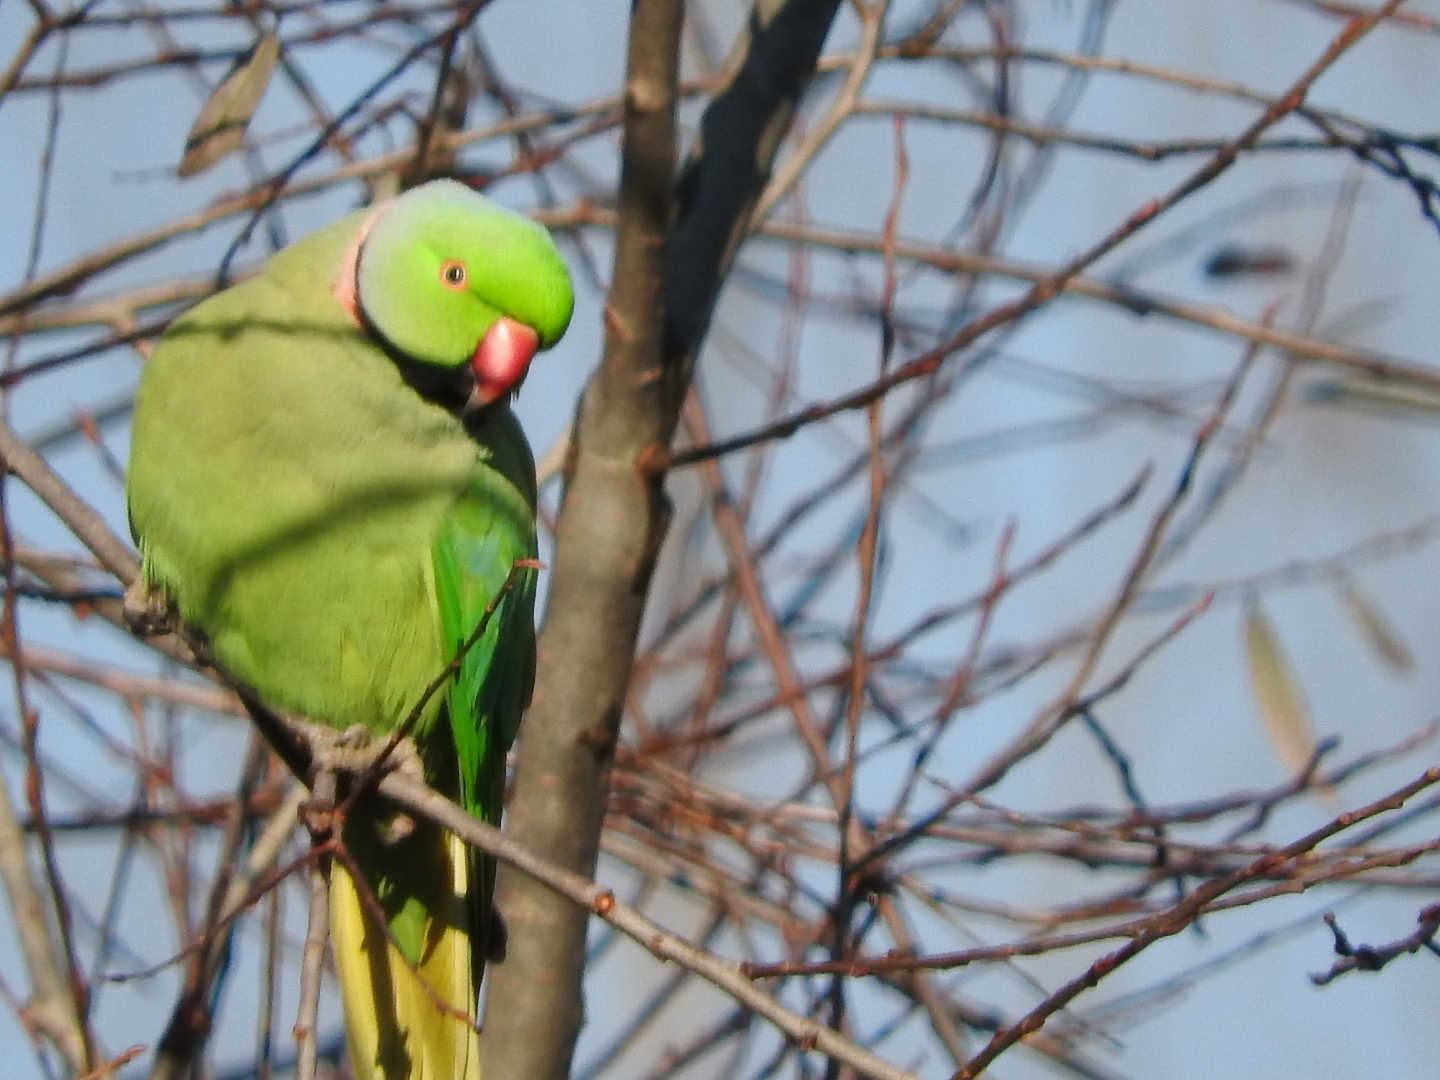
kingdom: Animalia
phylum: Chordata
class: Aves
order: Psittaciformes
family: Psittacidae
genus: Psittacula
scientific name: Psittacula krameri
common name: Rose-ringed parakeet
